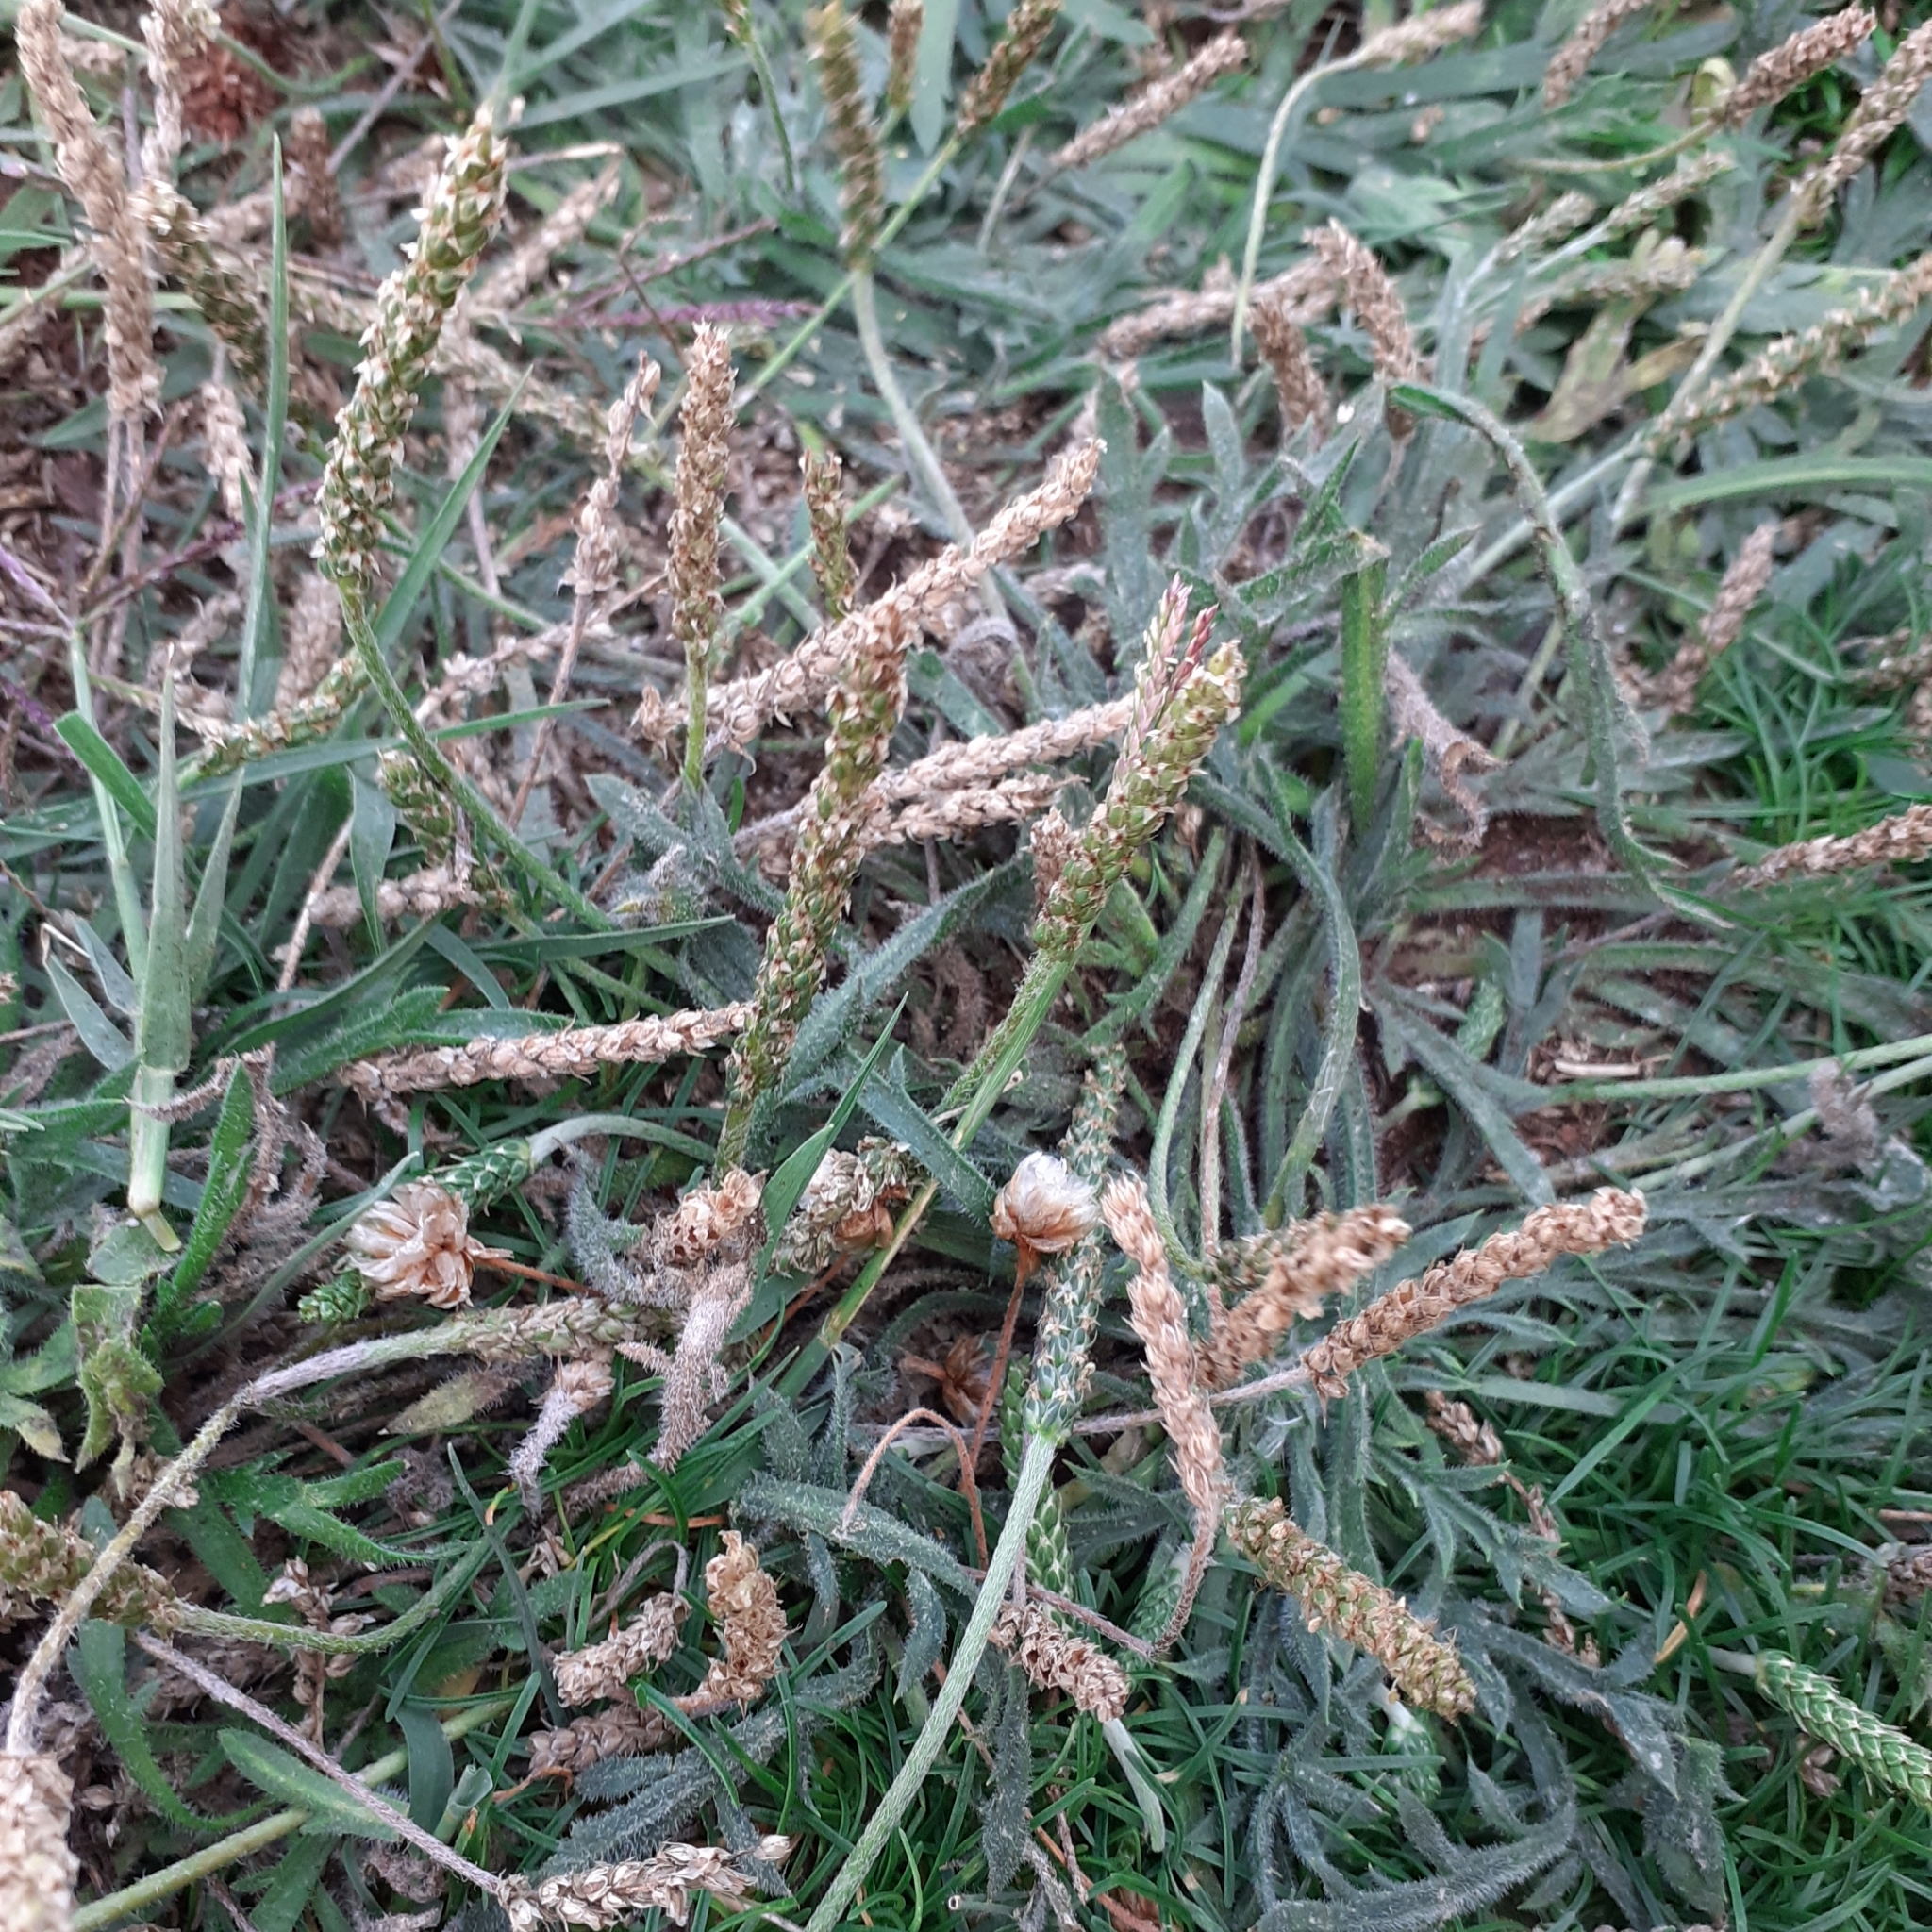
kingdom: Plantae
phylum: Tracheophyta
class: Magnoliopsida
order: Lamiales
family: Plantaginaceae
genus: Plantago
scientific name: Plantago coronopus
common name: Buck's-horn plantain
